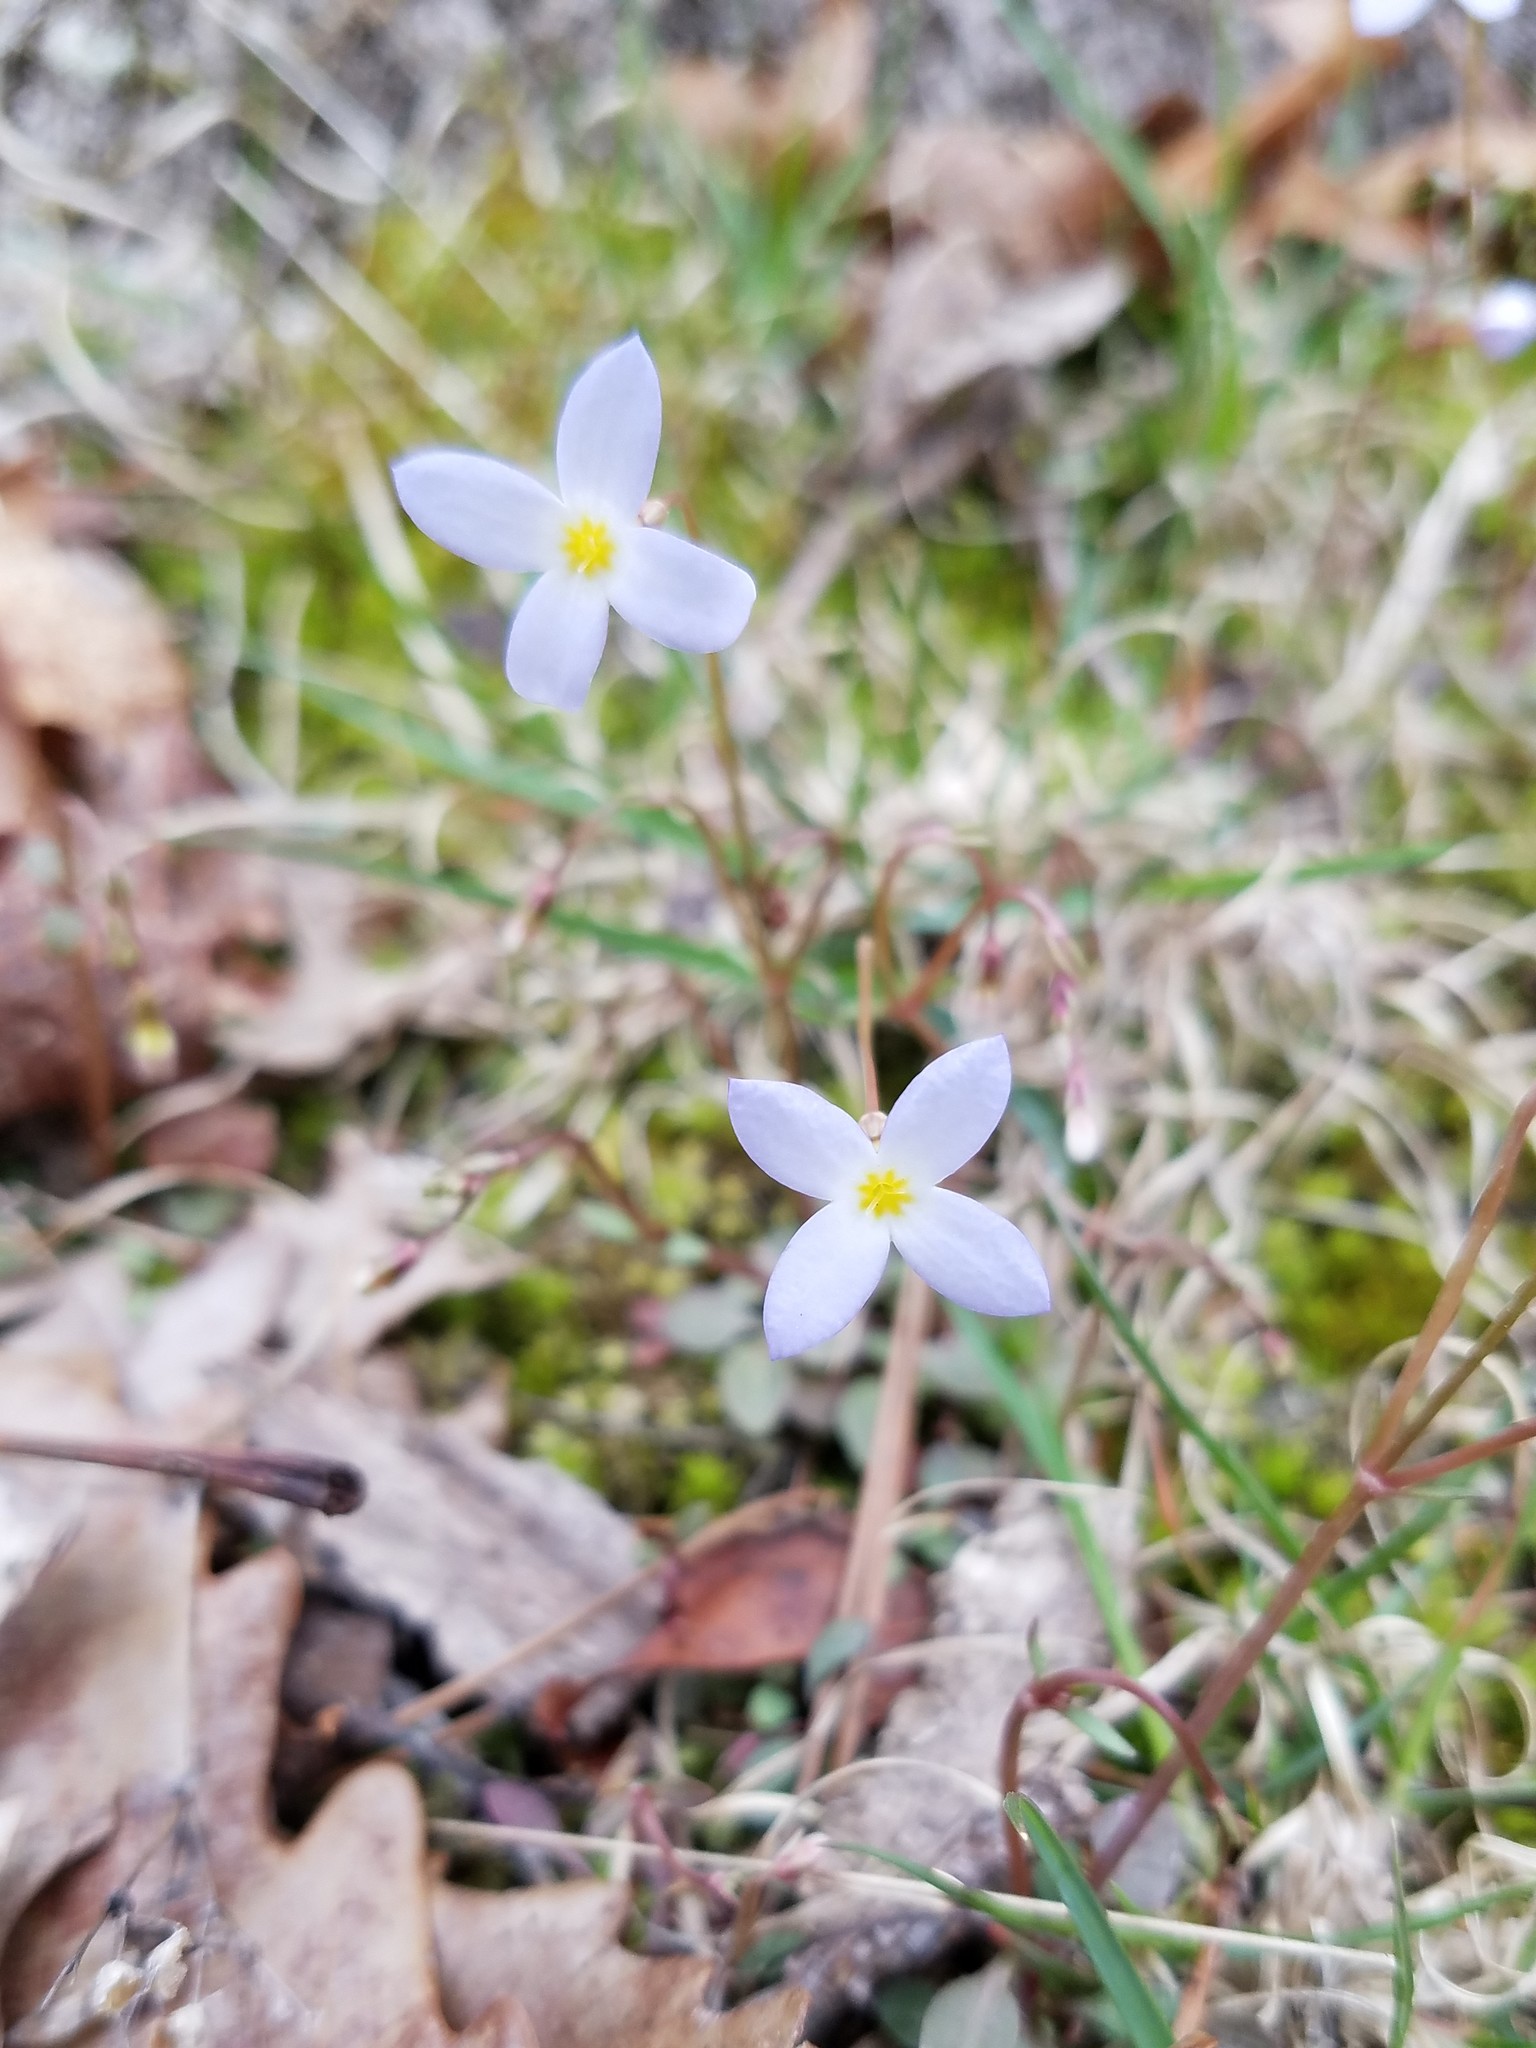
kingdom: Plantae
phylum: Tracheophyta
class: Magnoliopsida
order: Gentianales
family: Rubiaceae
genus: Houstonia
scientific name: Houstonia caerulea
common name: Bluets
